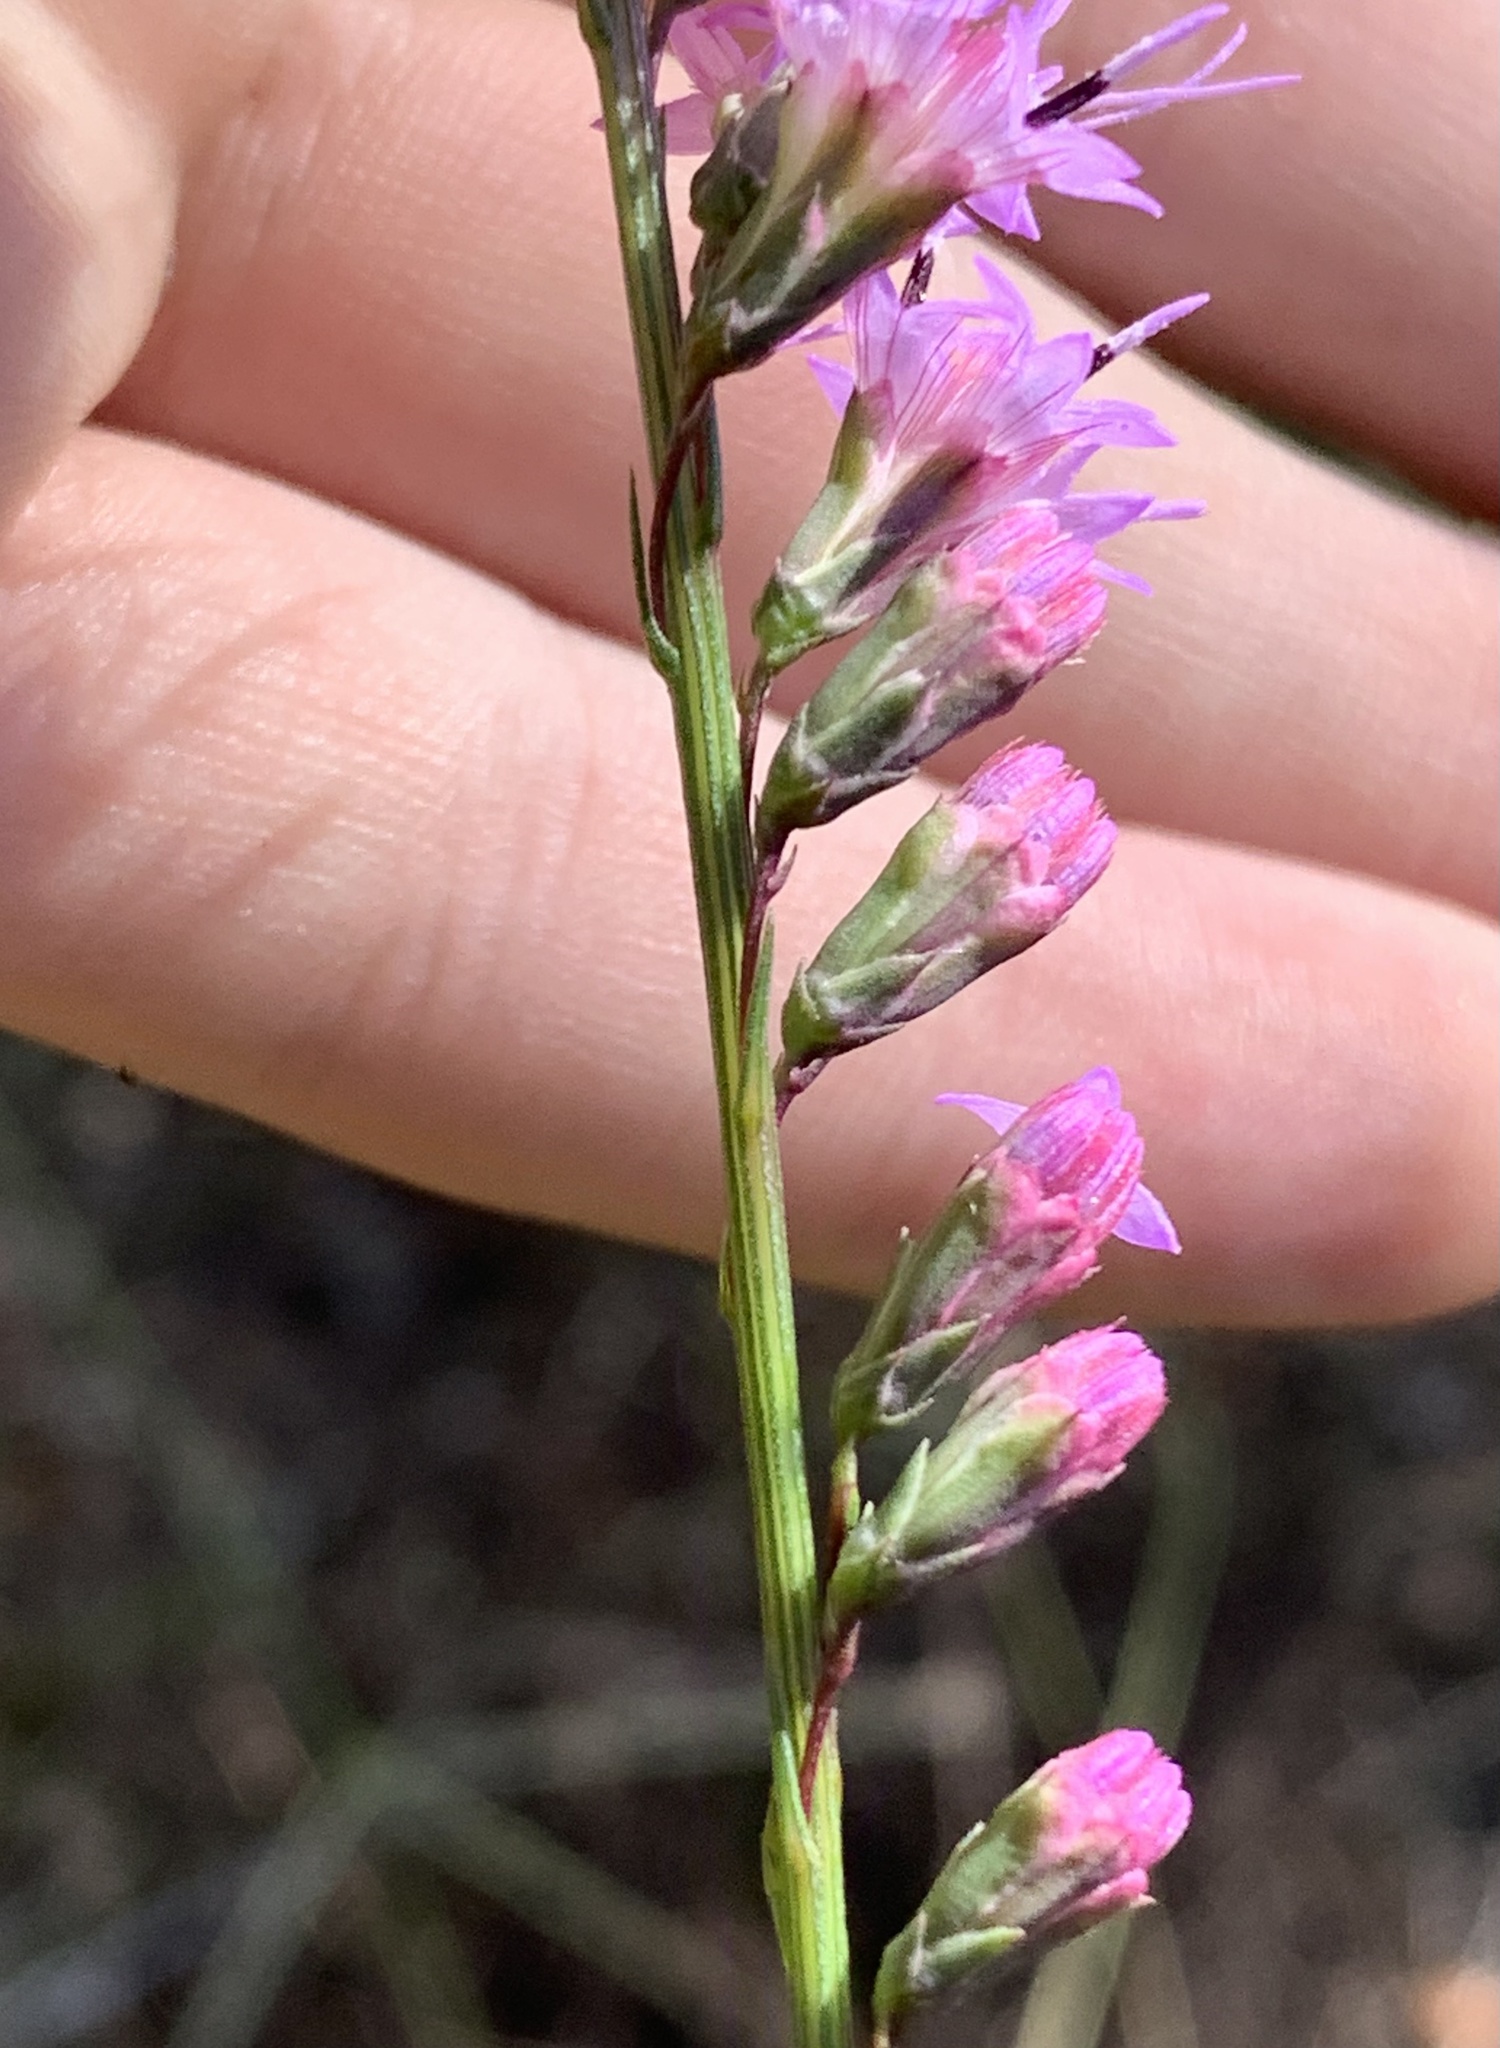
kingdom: Plantae
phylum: Tracheophyta
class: Magnoliopsida
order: Asterales
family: Asteraceae
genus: Liatris
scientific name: Liatris tenuifolia
